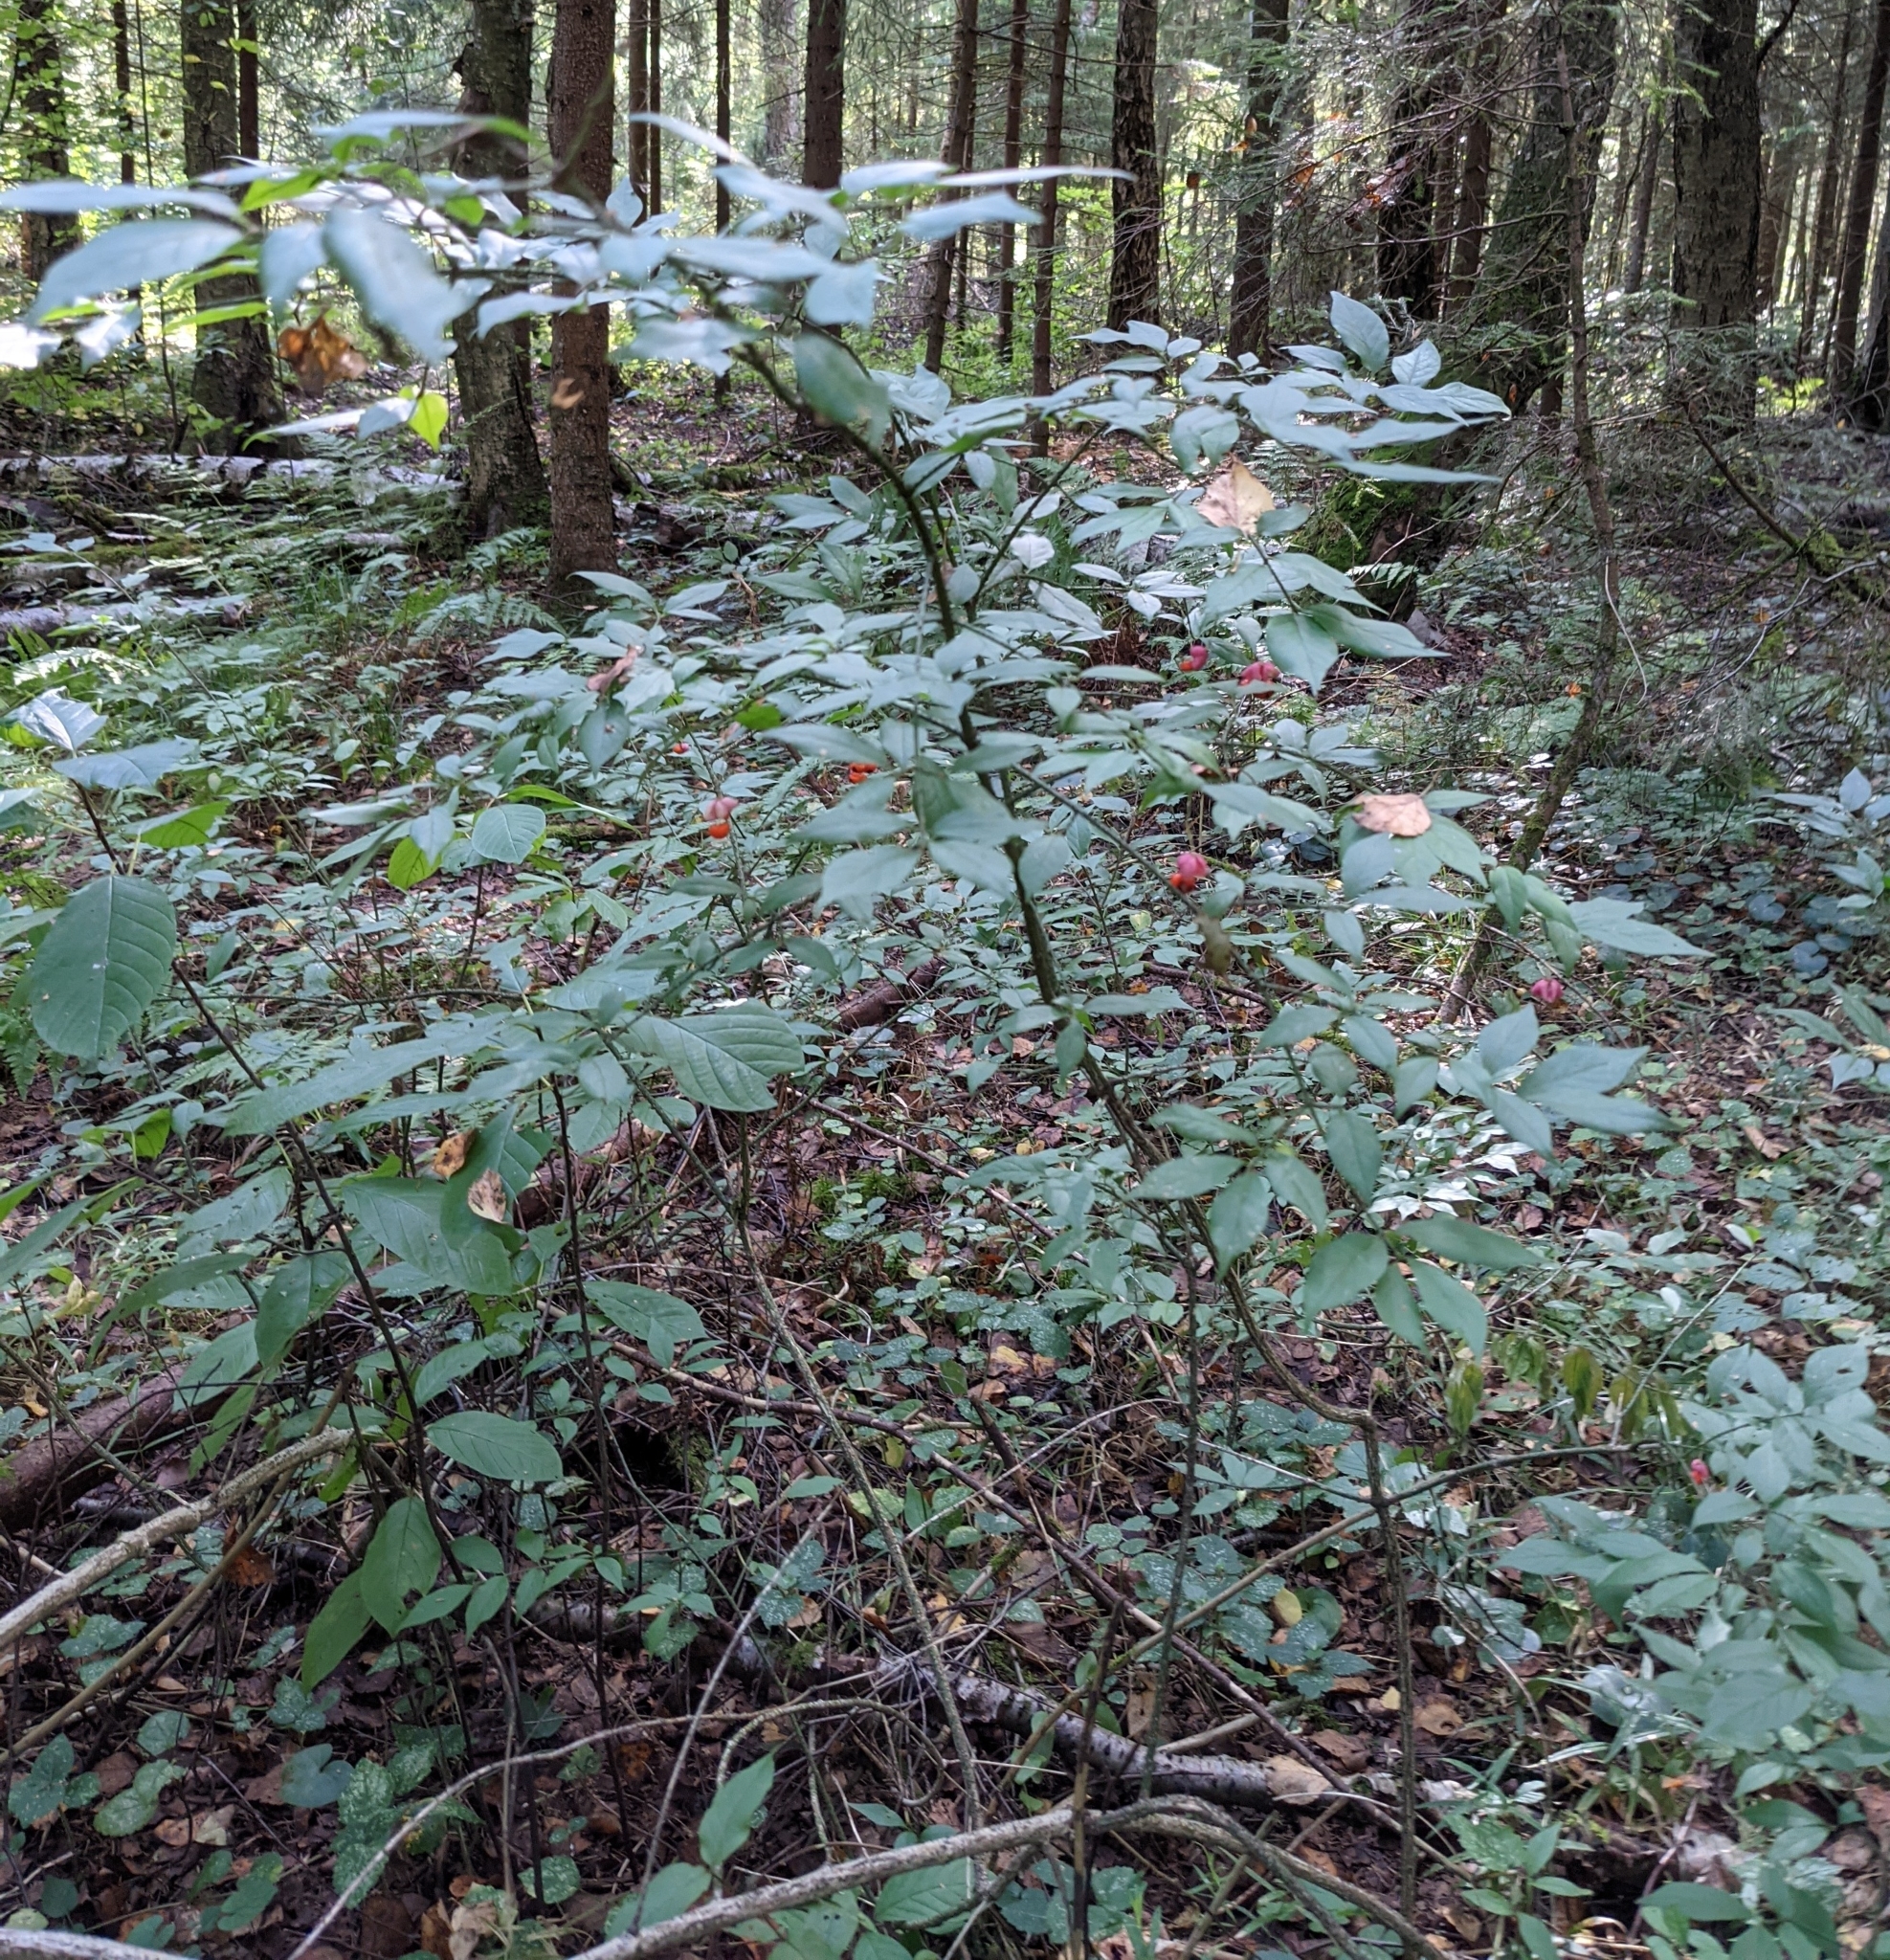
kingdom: Plantae
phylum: Tracheophyta
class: Magnoliopsida
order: Celastrales
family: Celastraceae
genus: Euonymus
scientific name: Euonymus verrucosus
